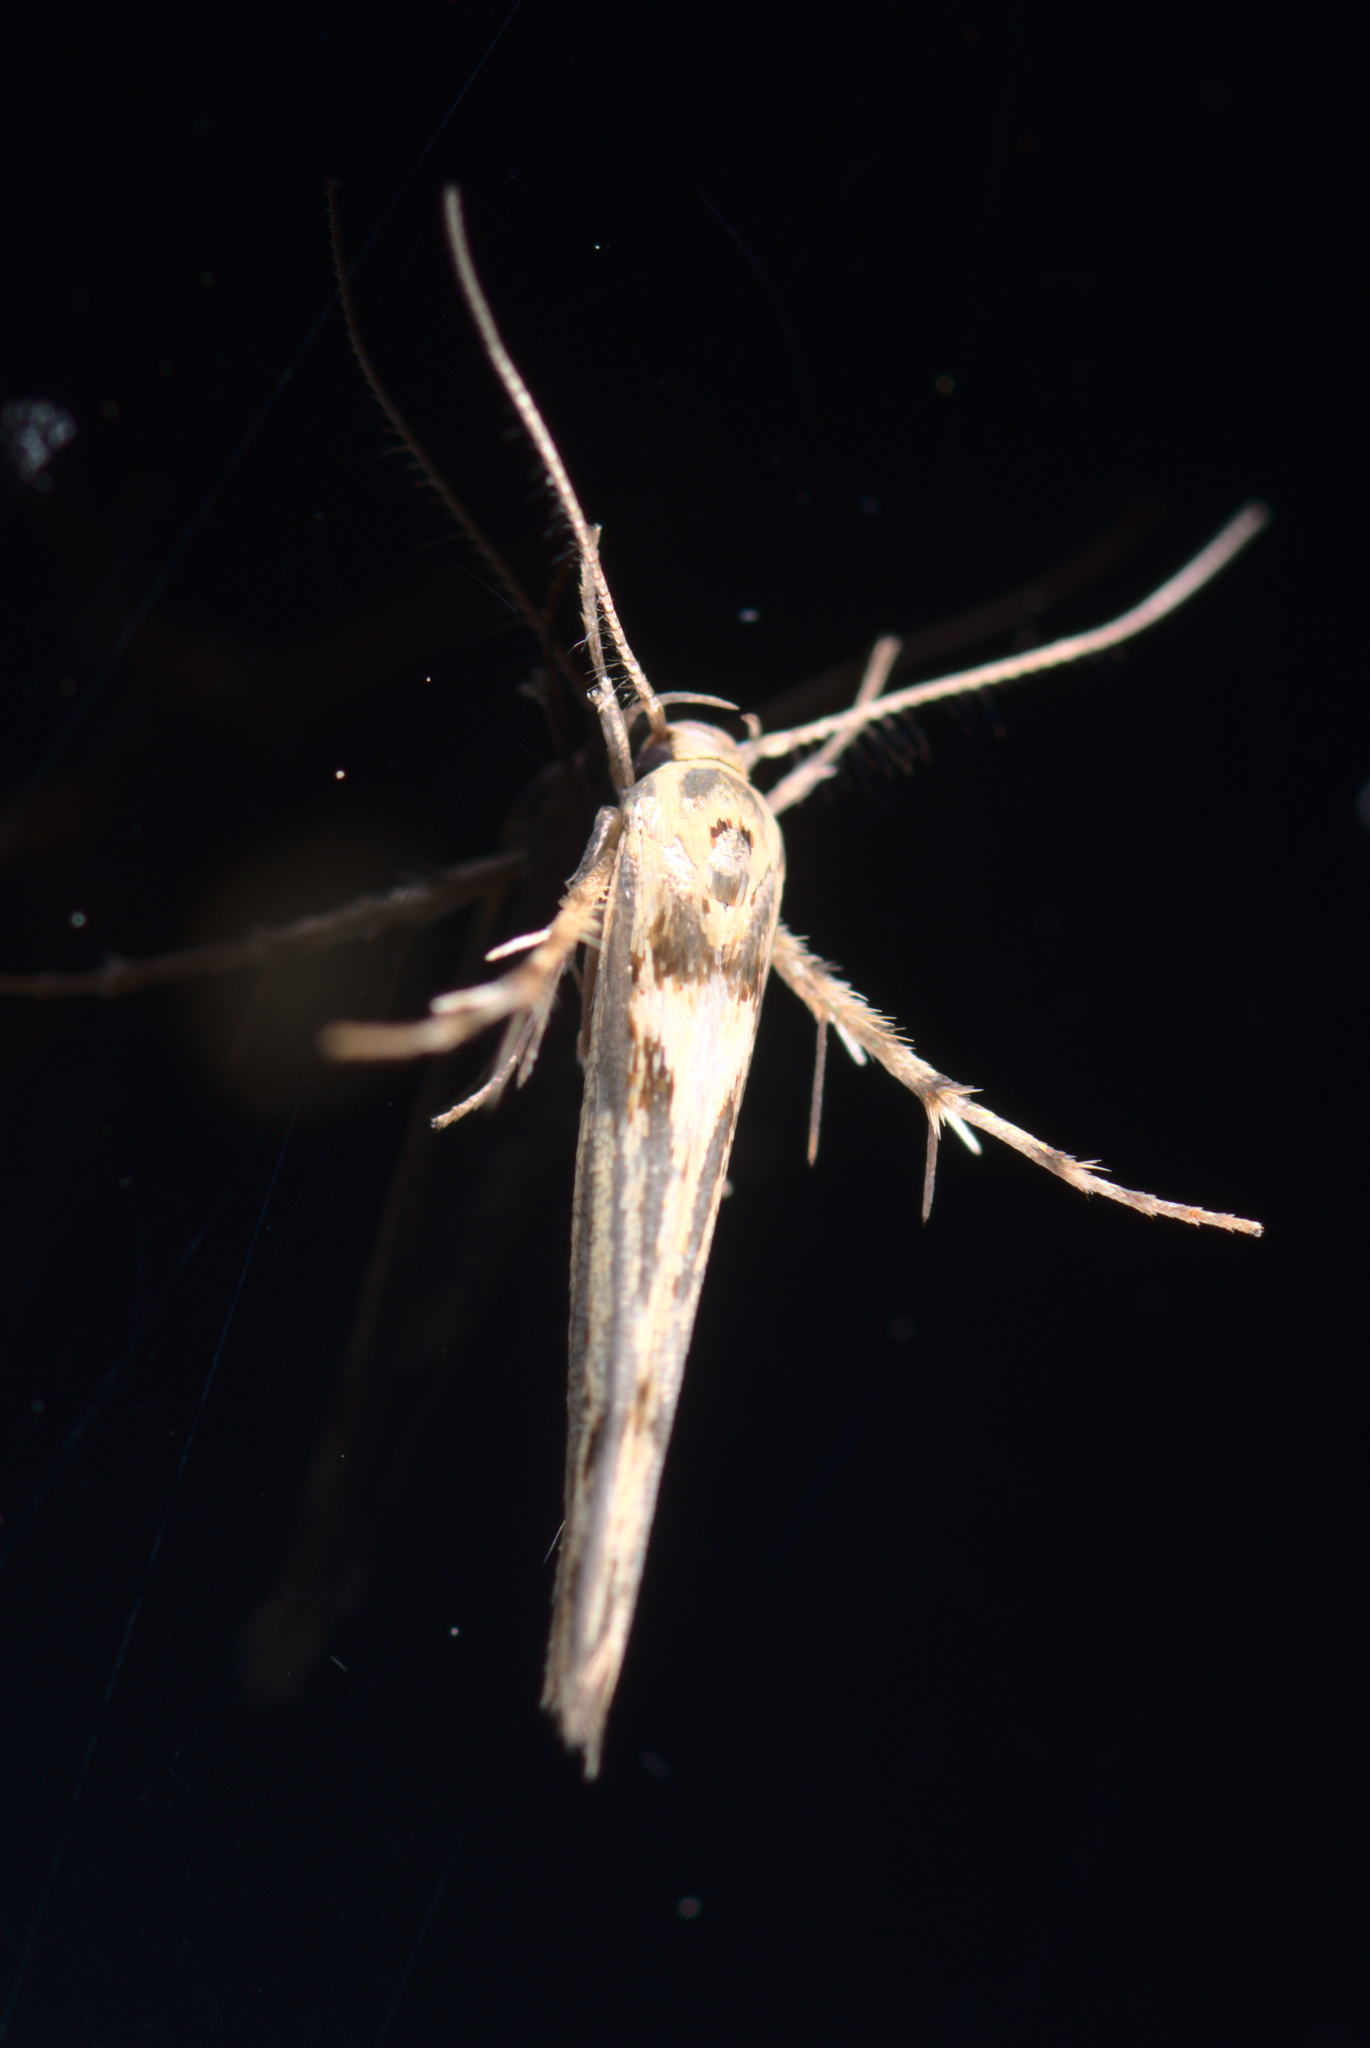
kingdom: Animalia
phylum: Arthropoda
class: Insecta
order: Lepidoptera
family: Stathmopodidae
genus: Stathmopoda
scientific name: Stathmopoda plumbiflua
